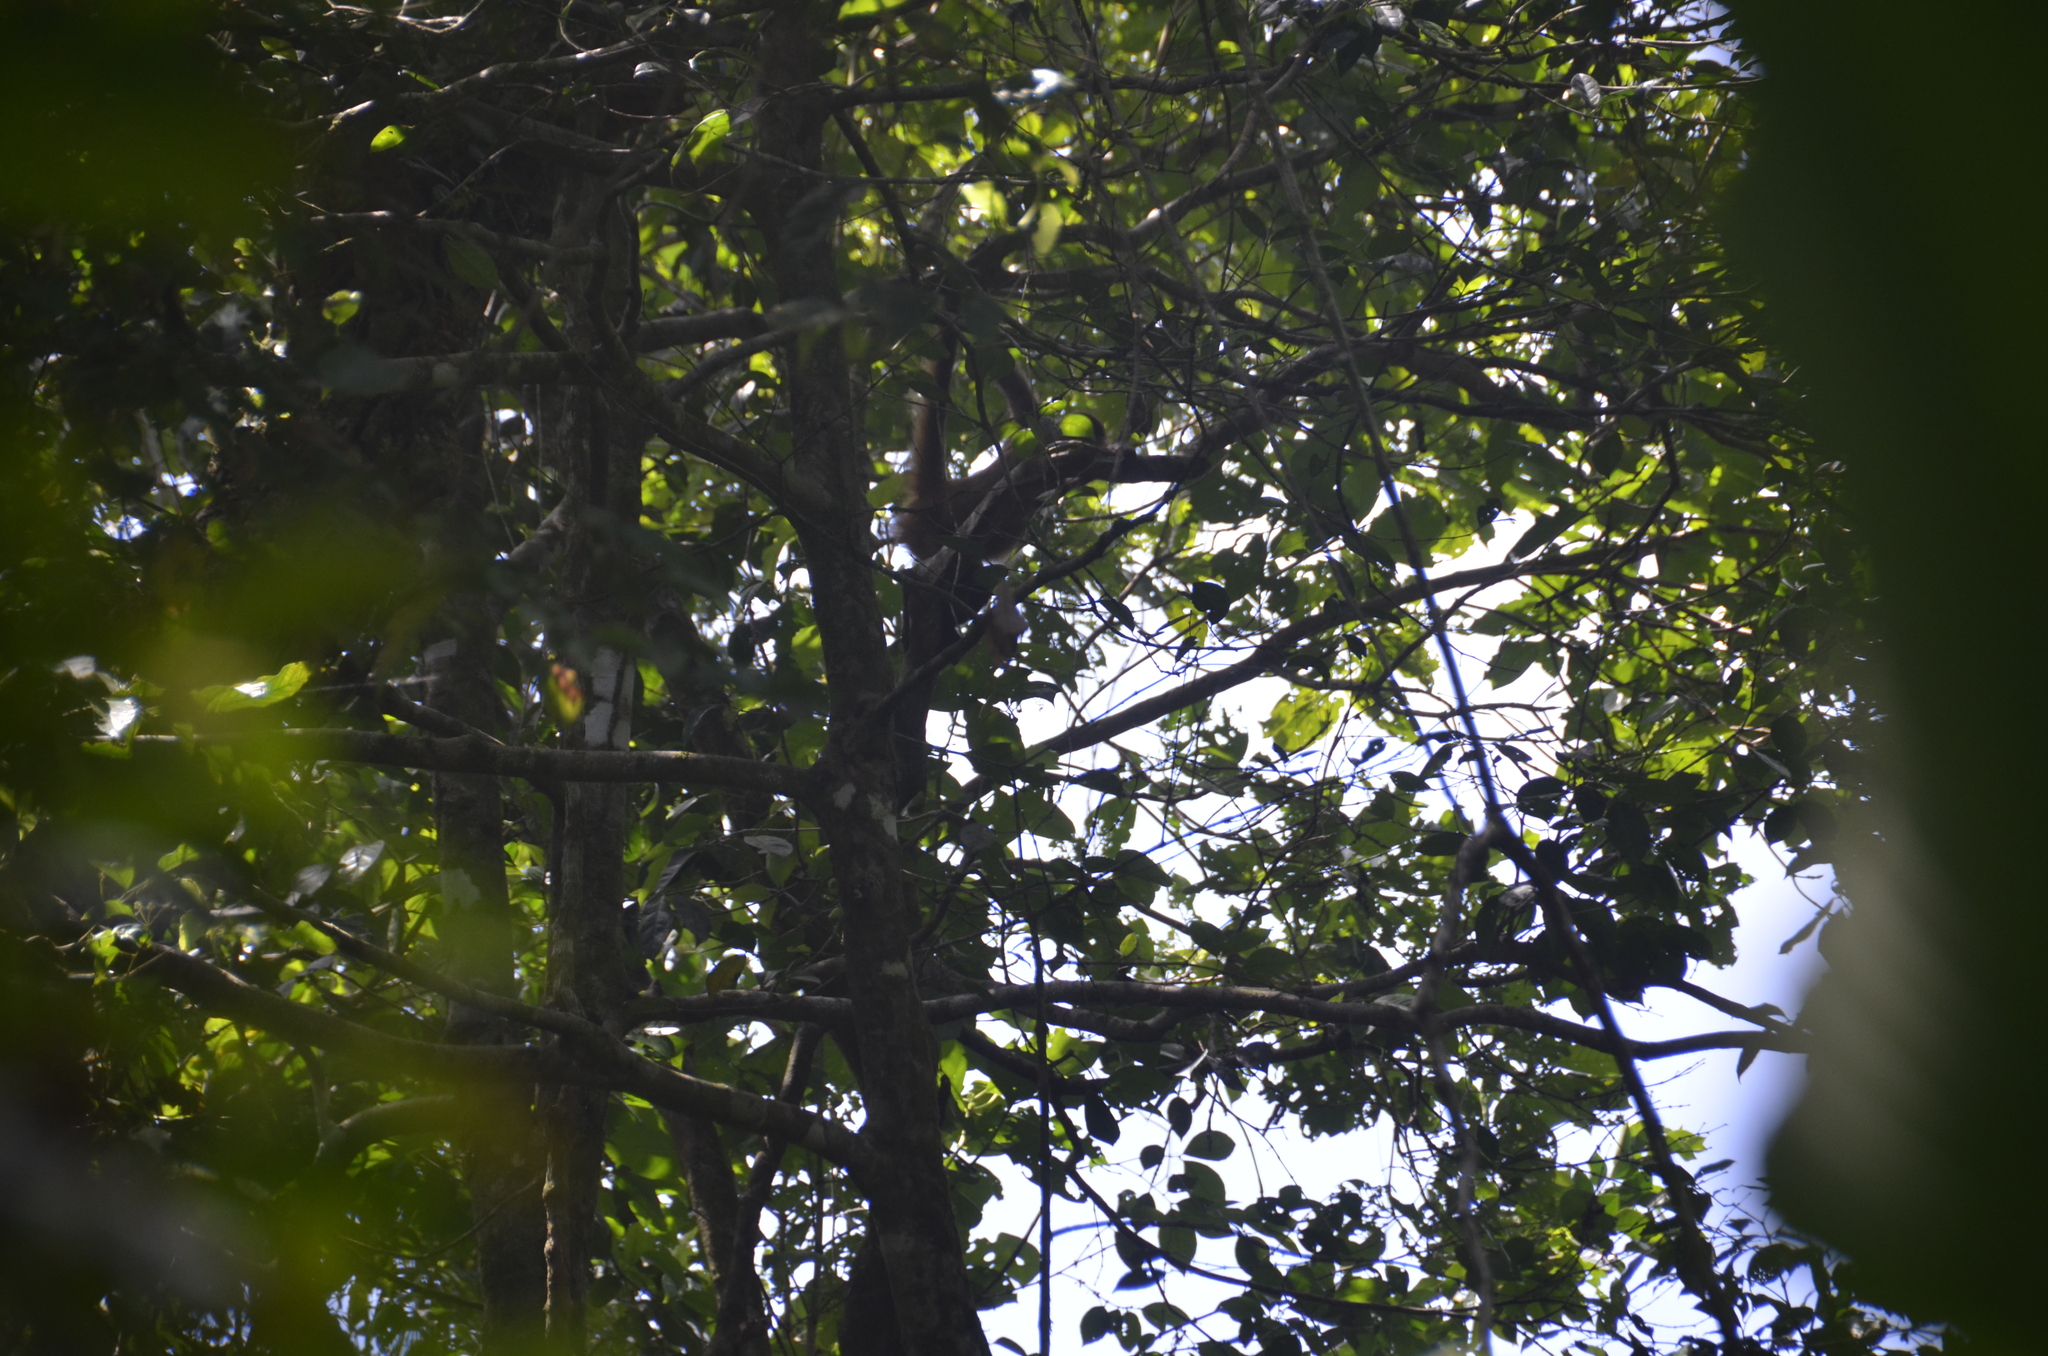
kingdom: Animalia
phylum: Chordata
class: Mammalia
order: Primates
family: Atelidae
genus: Ateles
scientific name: Ateles geoffroyi
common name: Black-handed spider monkey
